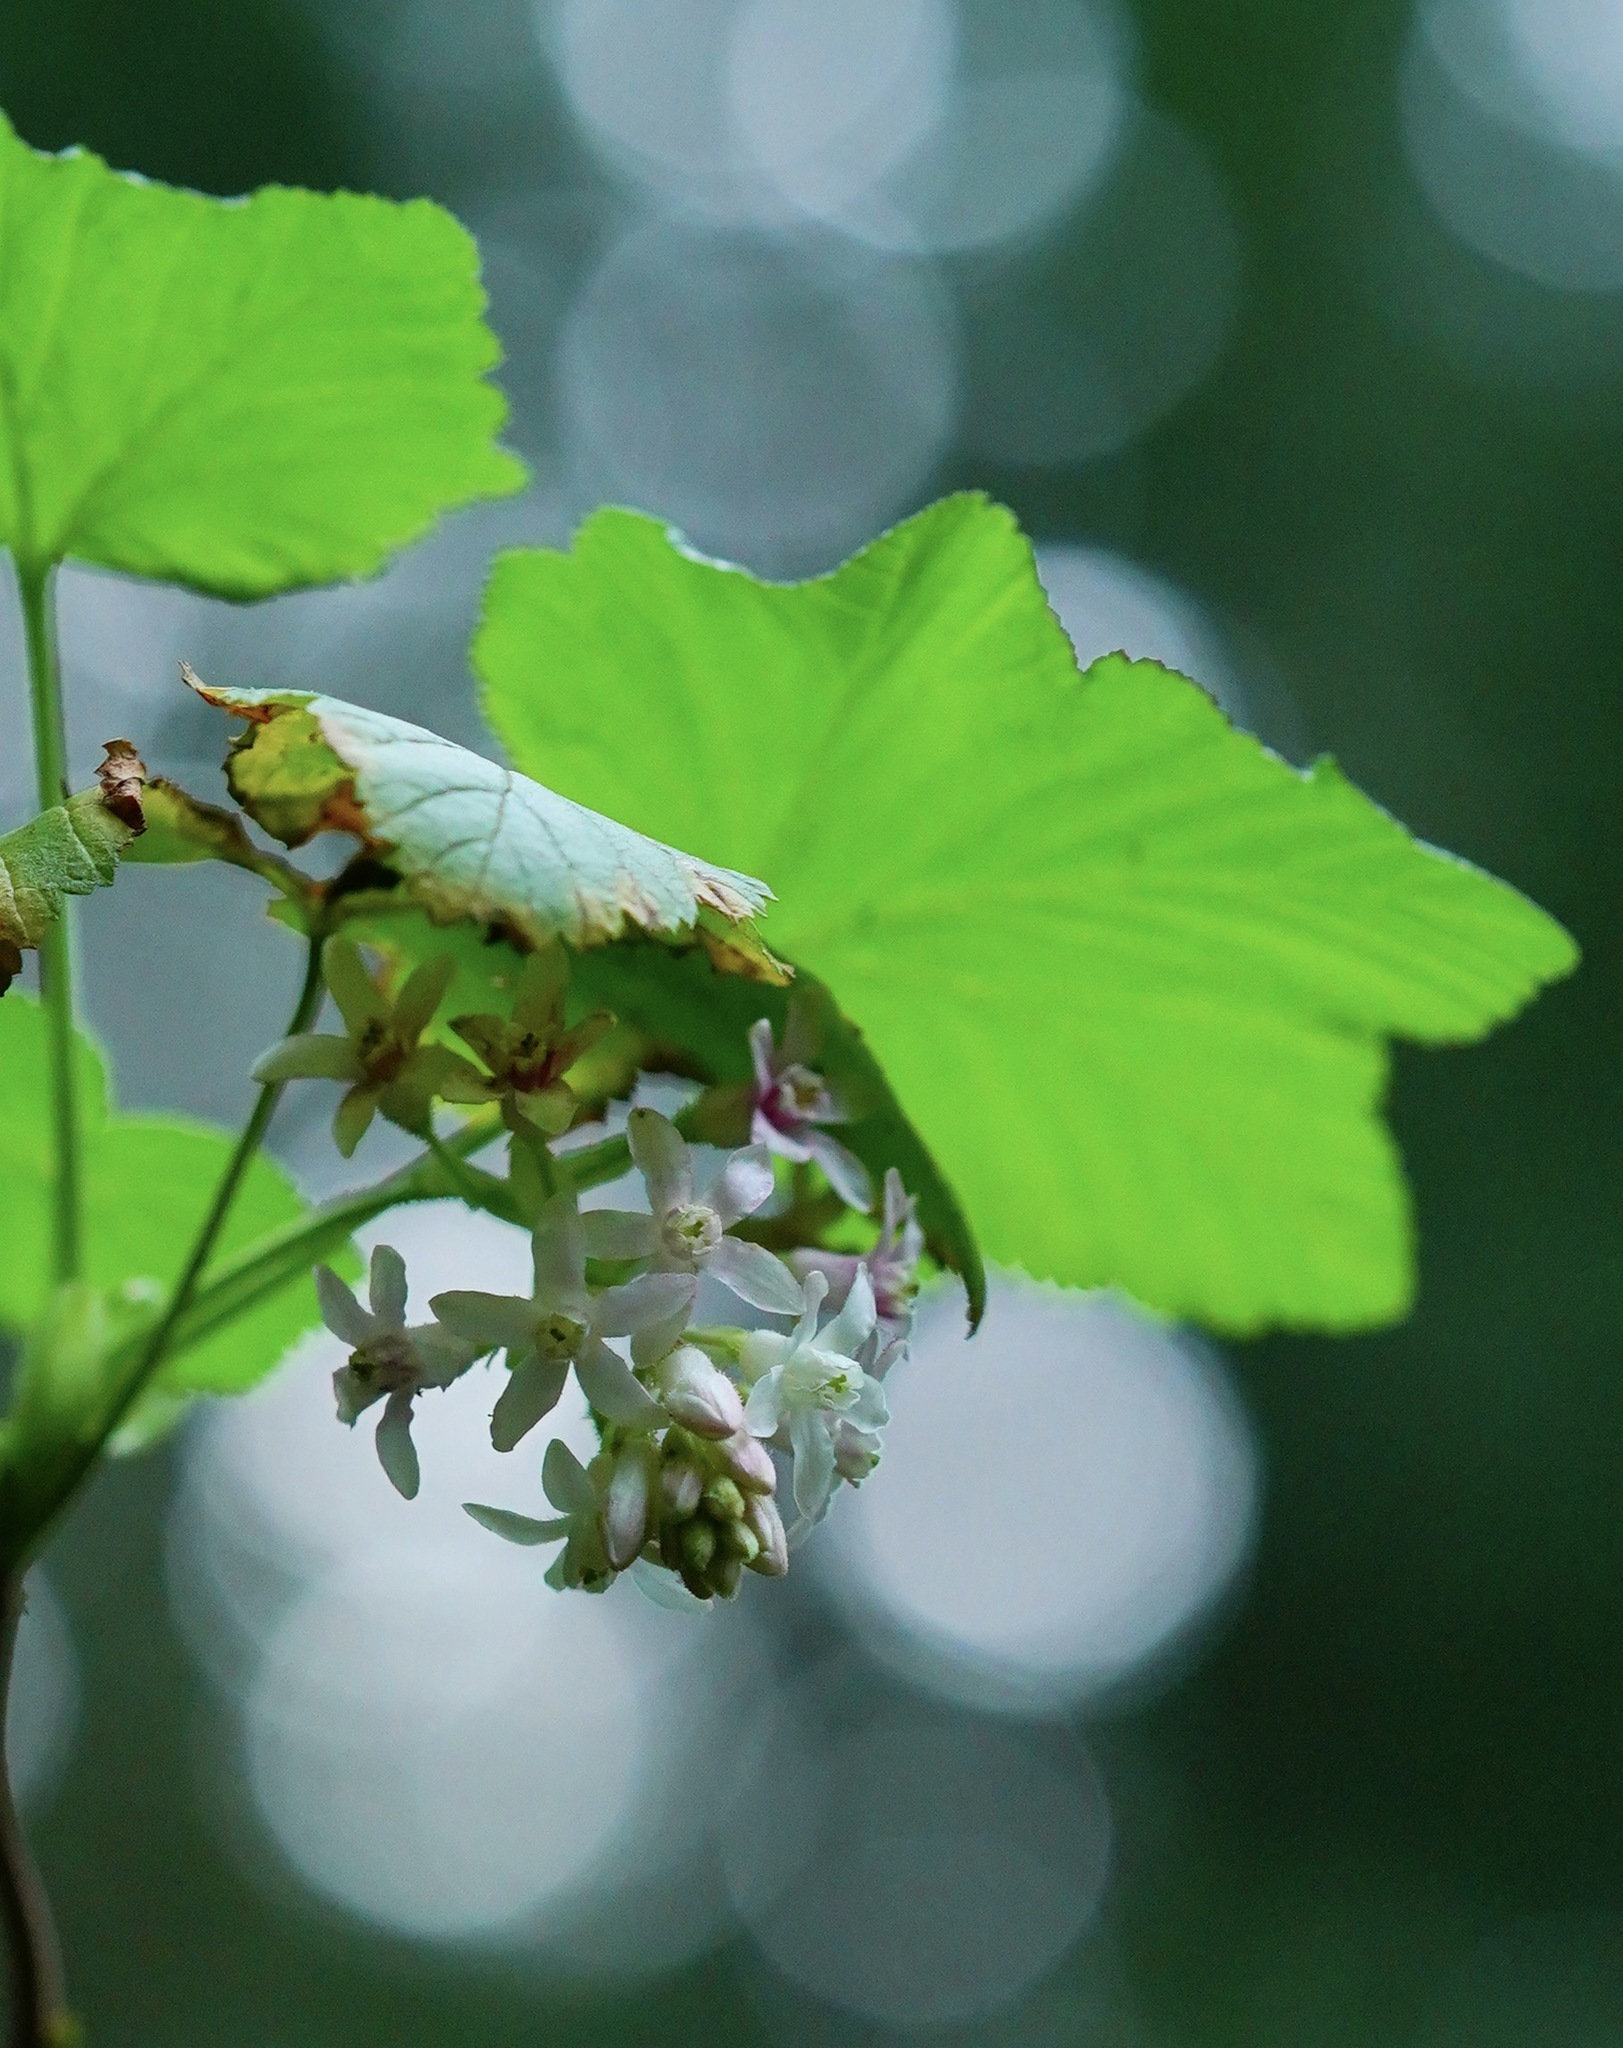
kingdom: Plantae
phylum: Tracheophyta
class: Magnoliopsida
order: Saxifragales
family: Grossulariaceae
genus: Ribes
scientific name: Ribes sanguineum
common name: Flowering currant
